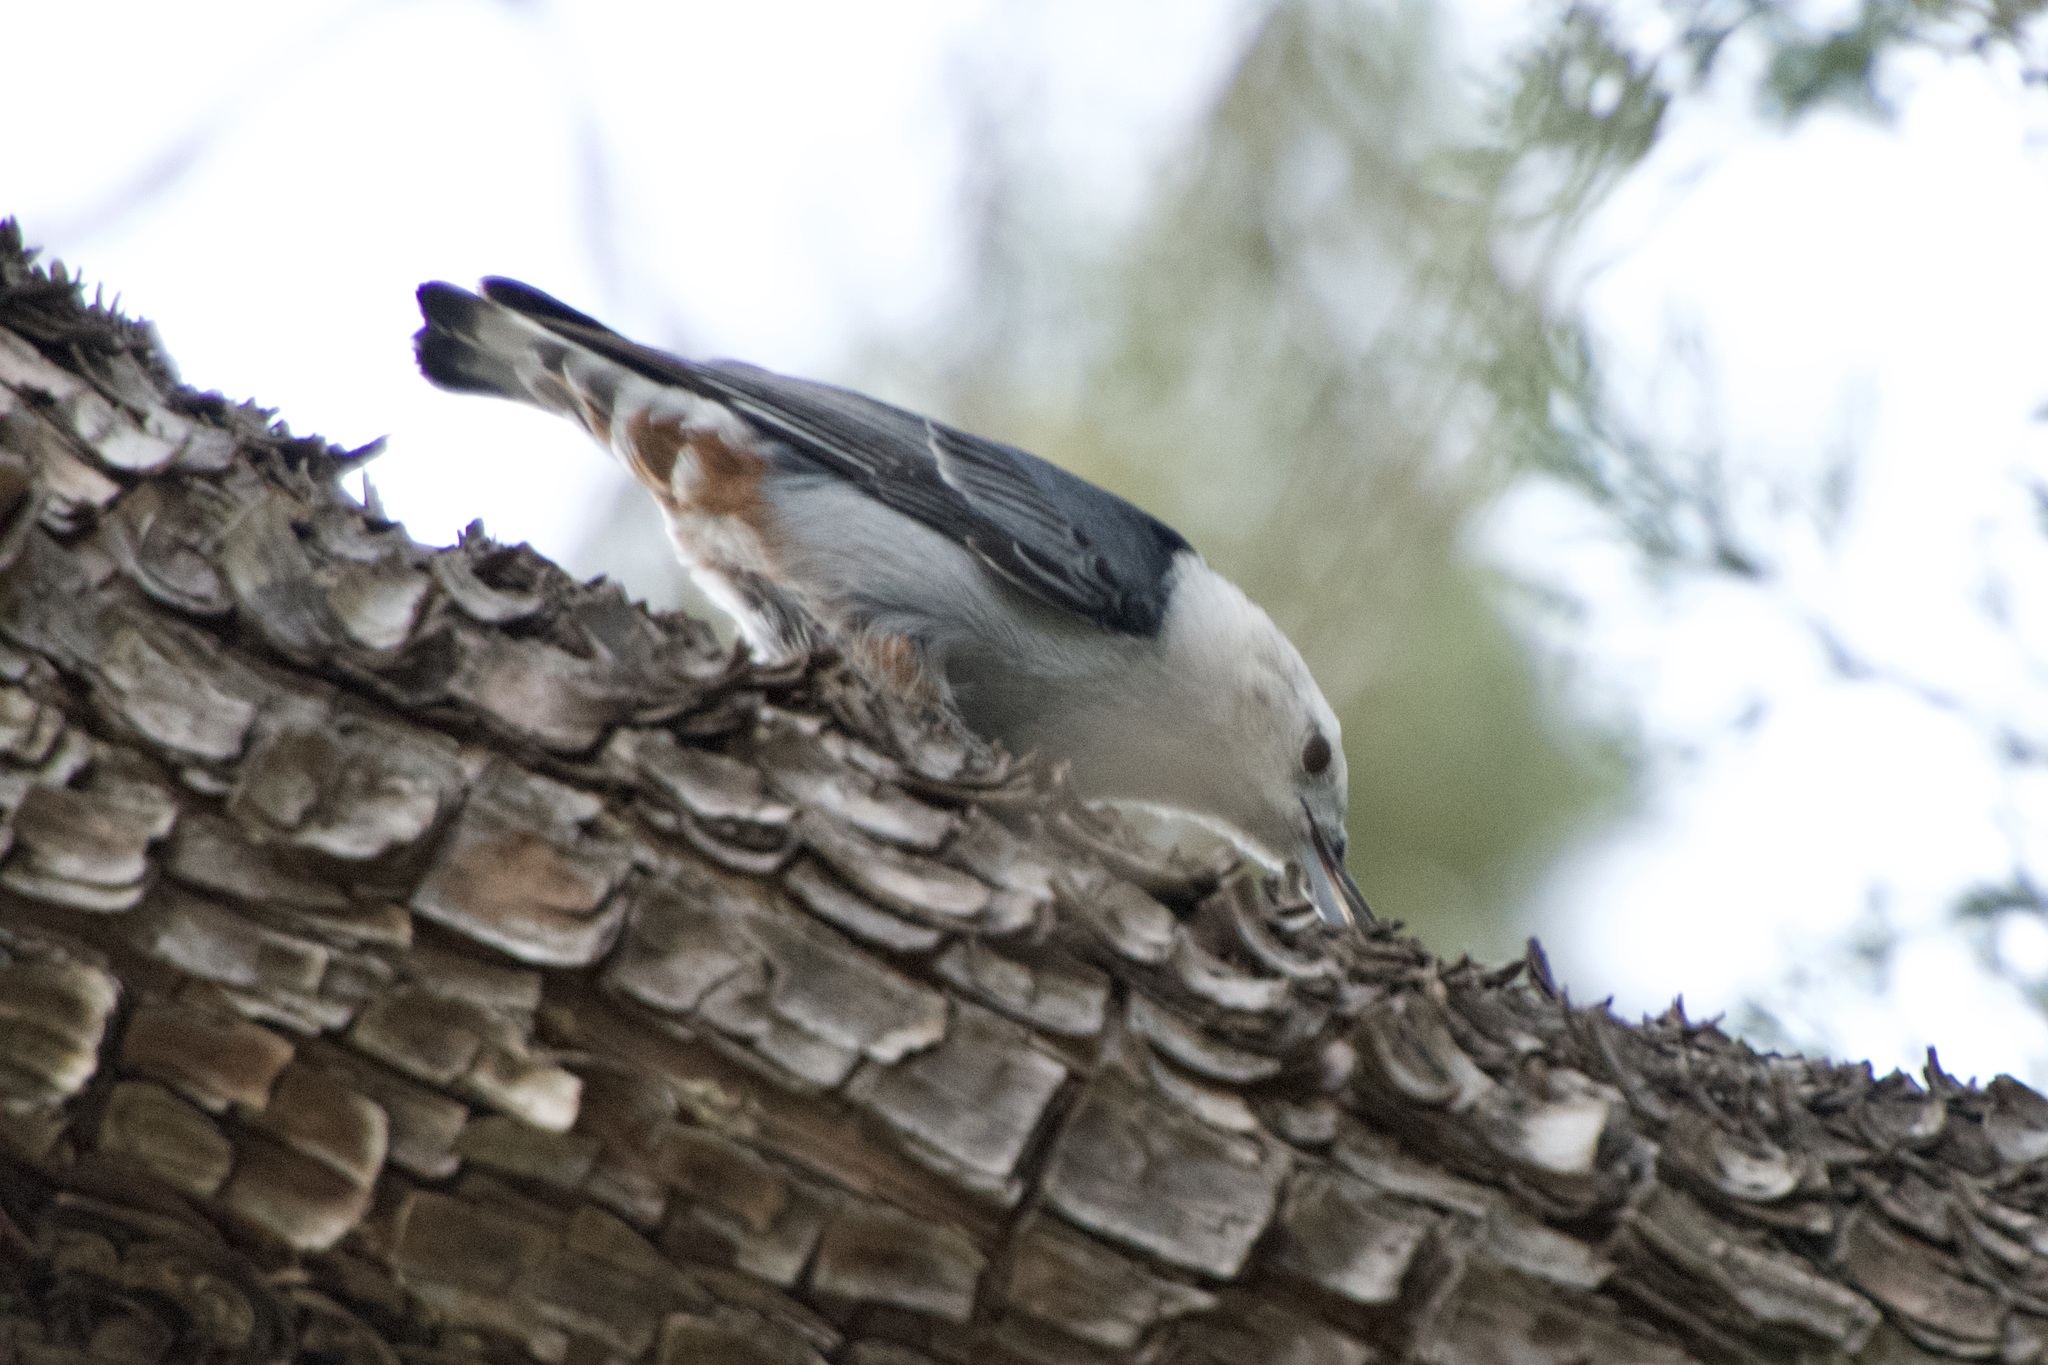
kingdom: Animalia
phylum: Chordata
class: Aves
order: Passeriformes
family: Sittidae
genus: Sitta
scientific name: Sitta carolinensis
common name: White-breasted nuthatch
